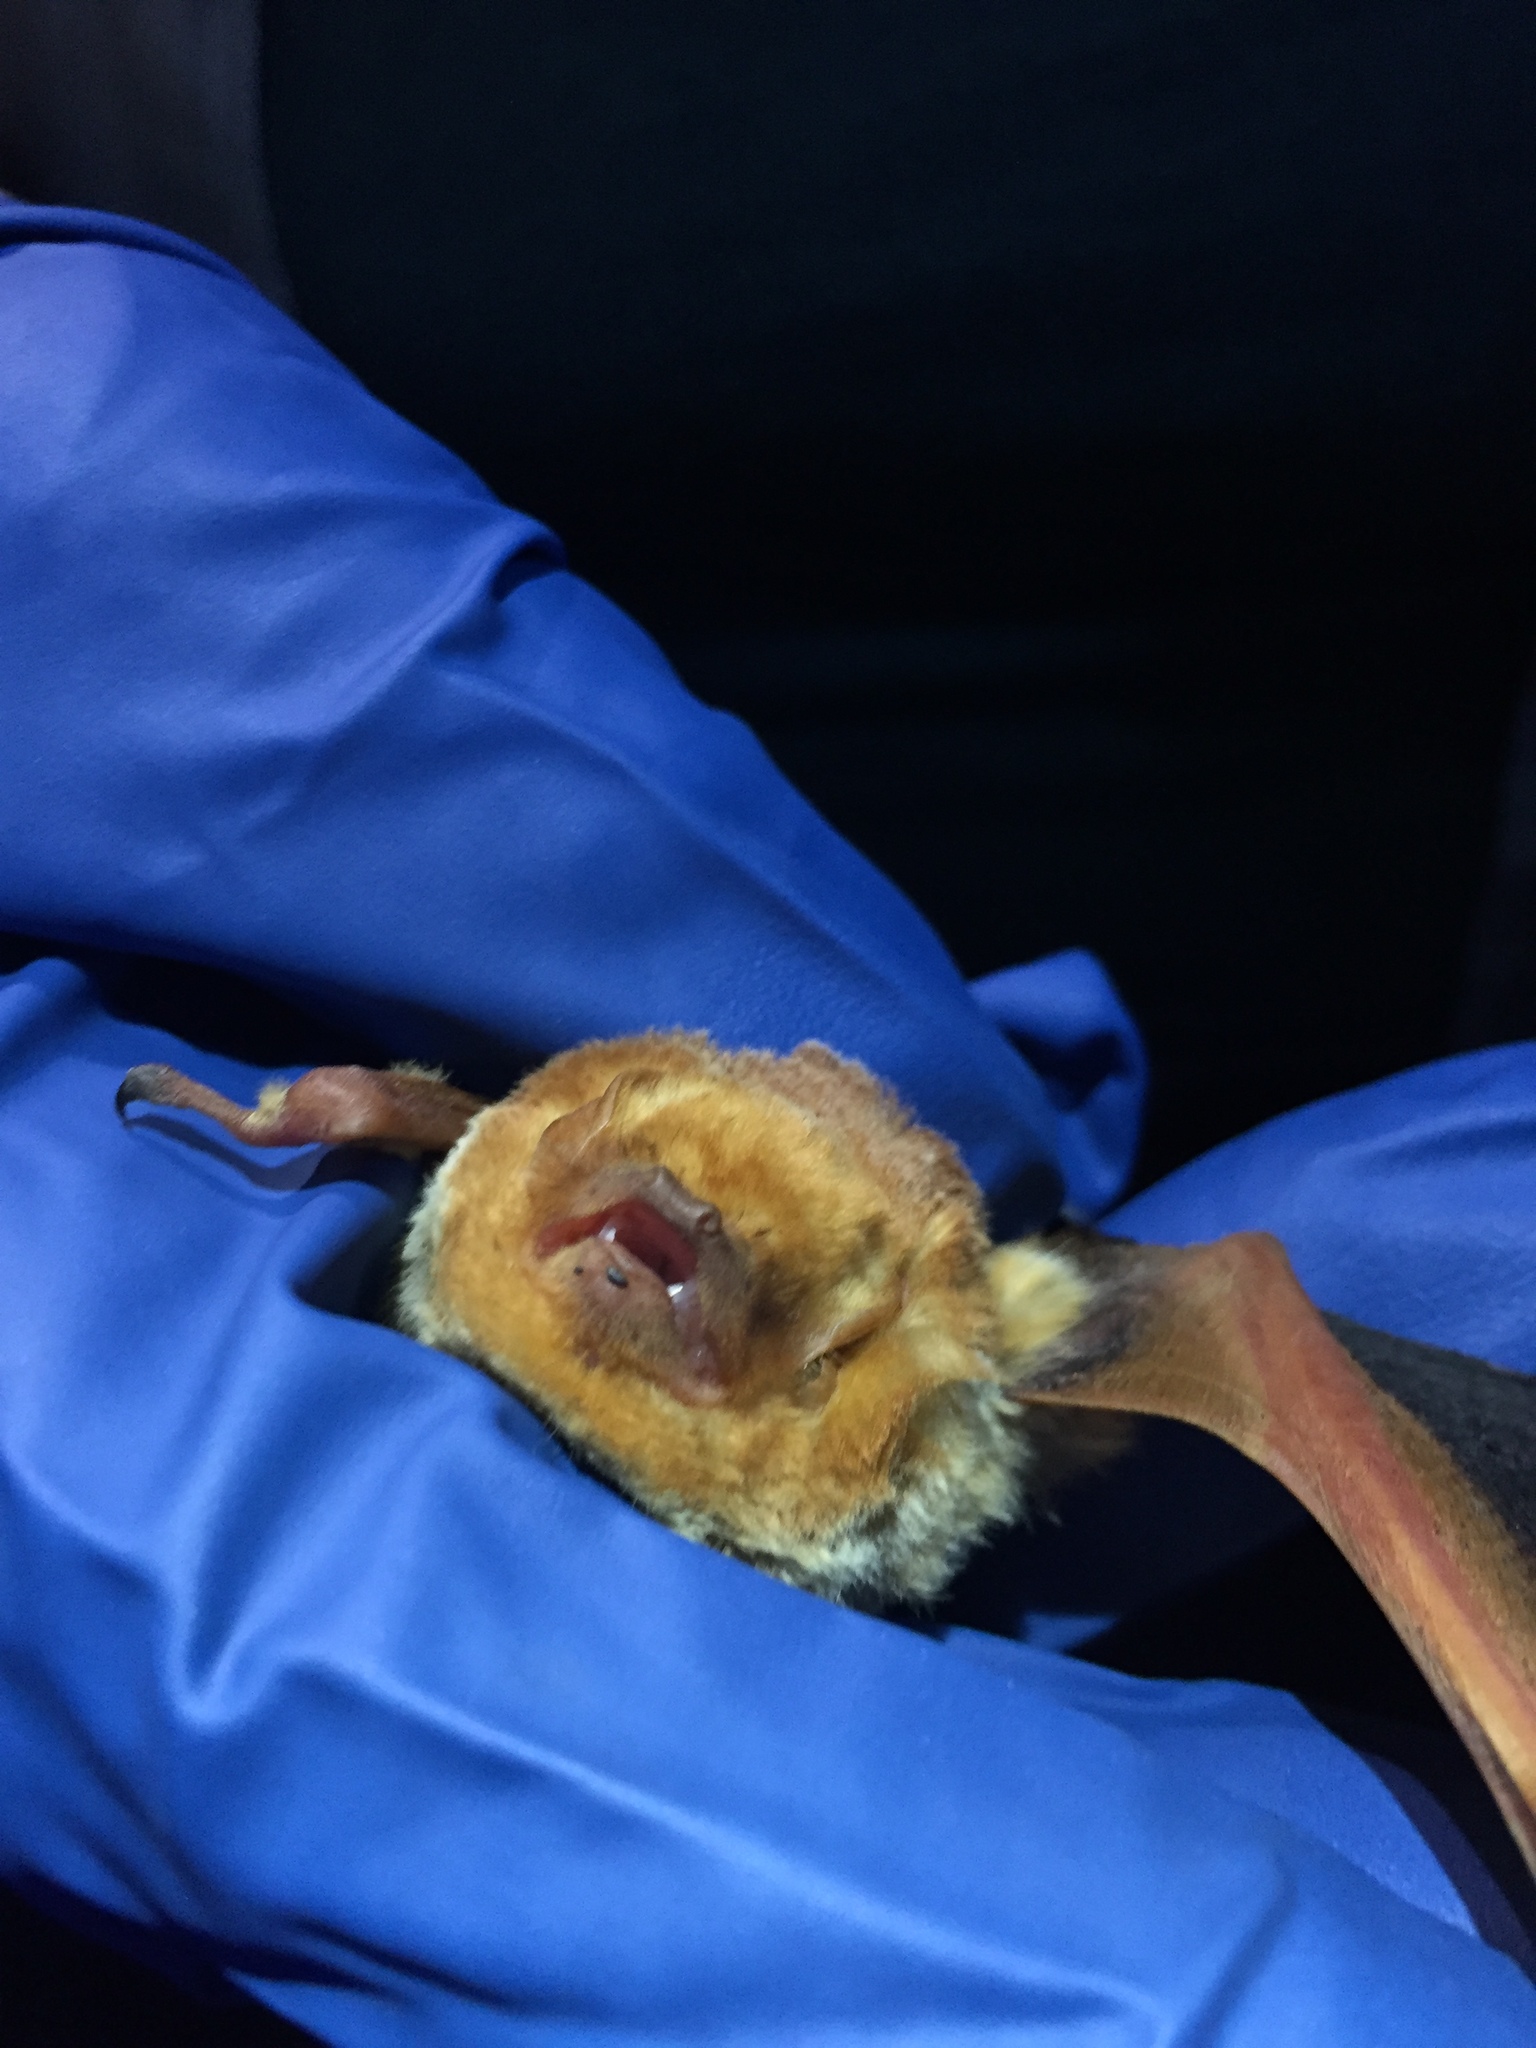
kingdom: Animalia
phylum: Chordata
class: Mammalia
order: Chiroptera
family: Vespertilionidae
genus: Lasiurus
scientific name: Lasiurus frantzii
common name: Desert red bat
